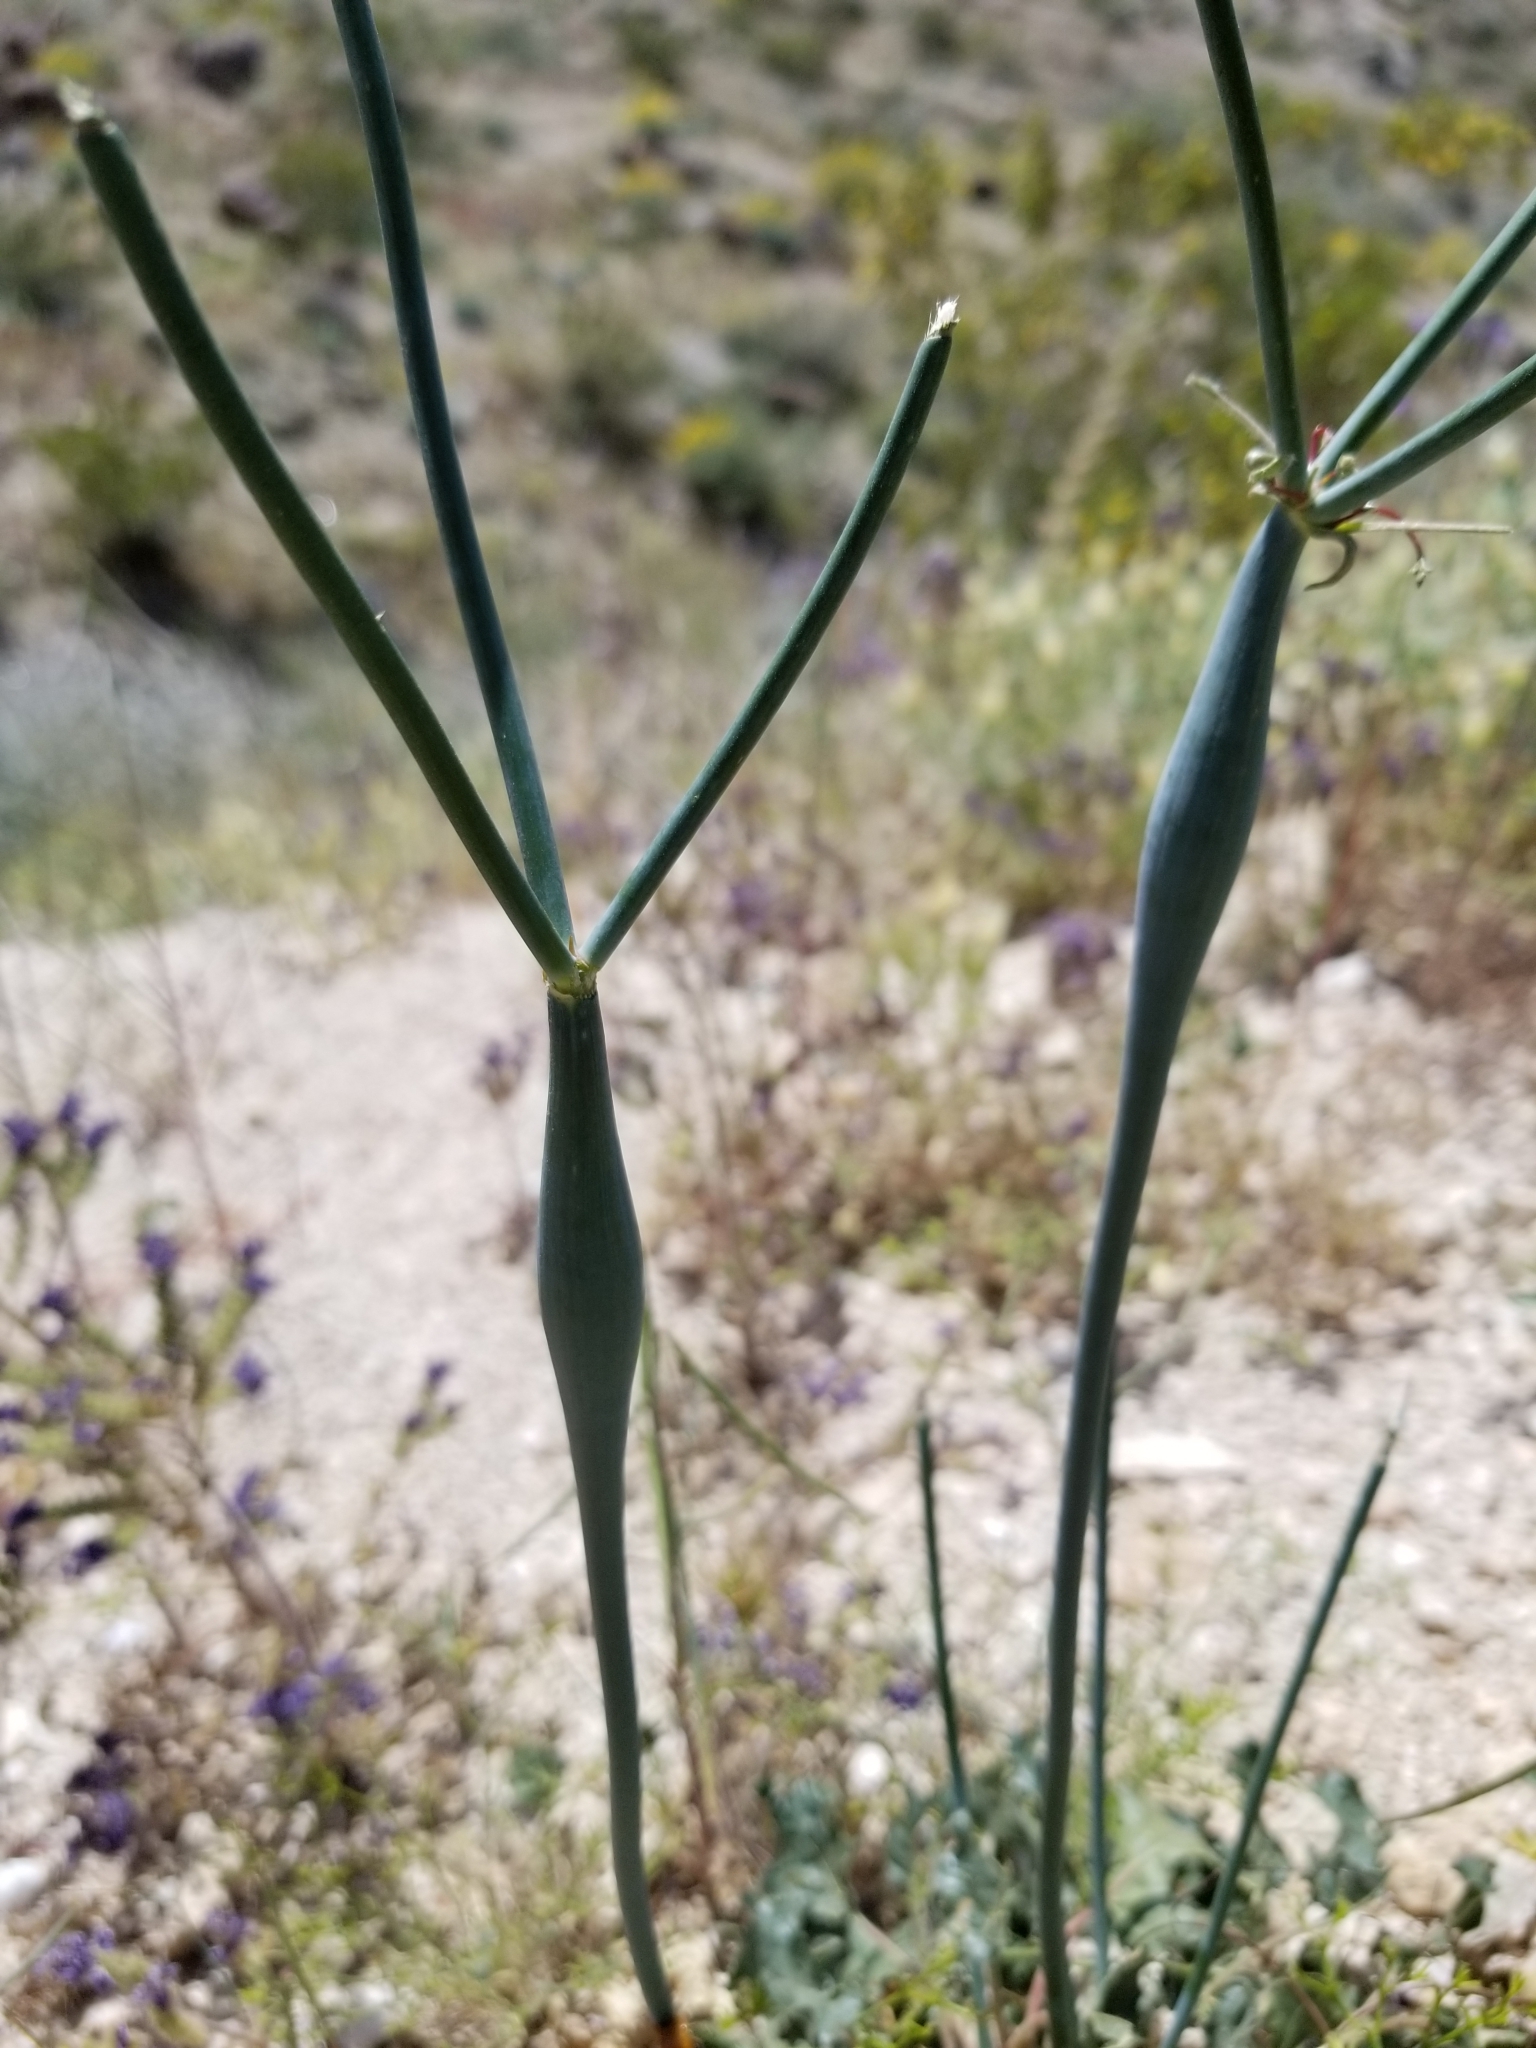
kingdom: Plantae
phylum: Tracheophyta
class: Magnoliopsida
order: Caryophyllales
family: Polygonaceae
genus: Eriogonum
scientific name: Eriogonum inflatum
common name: Desert trumpet
